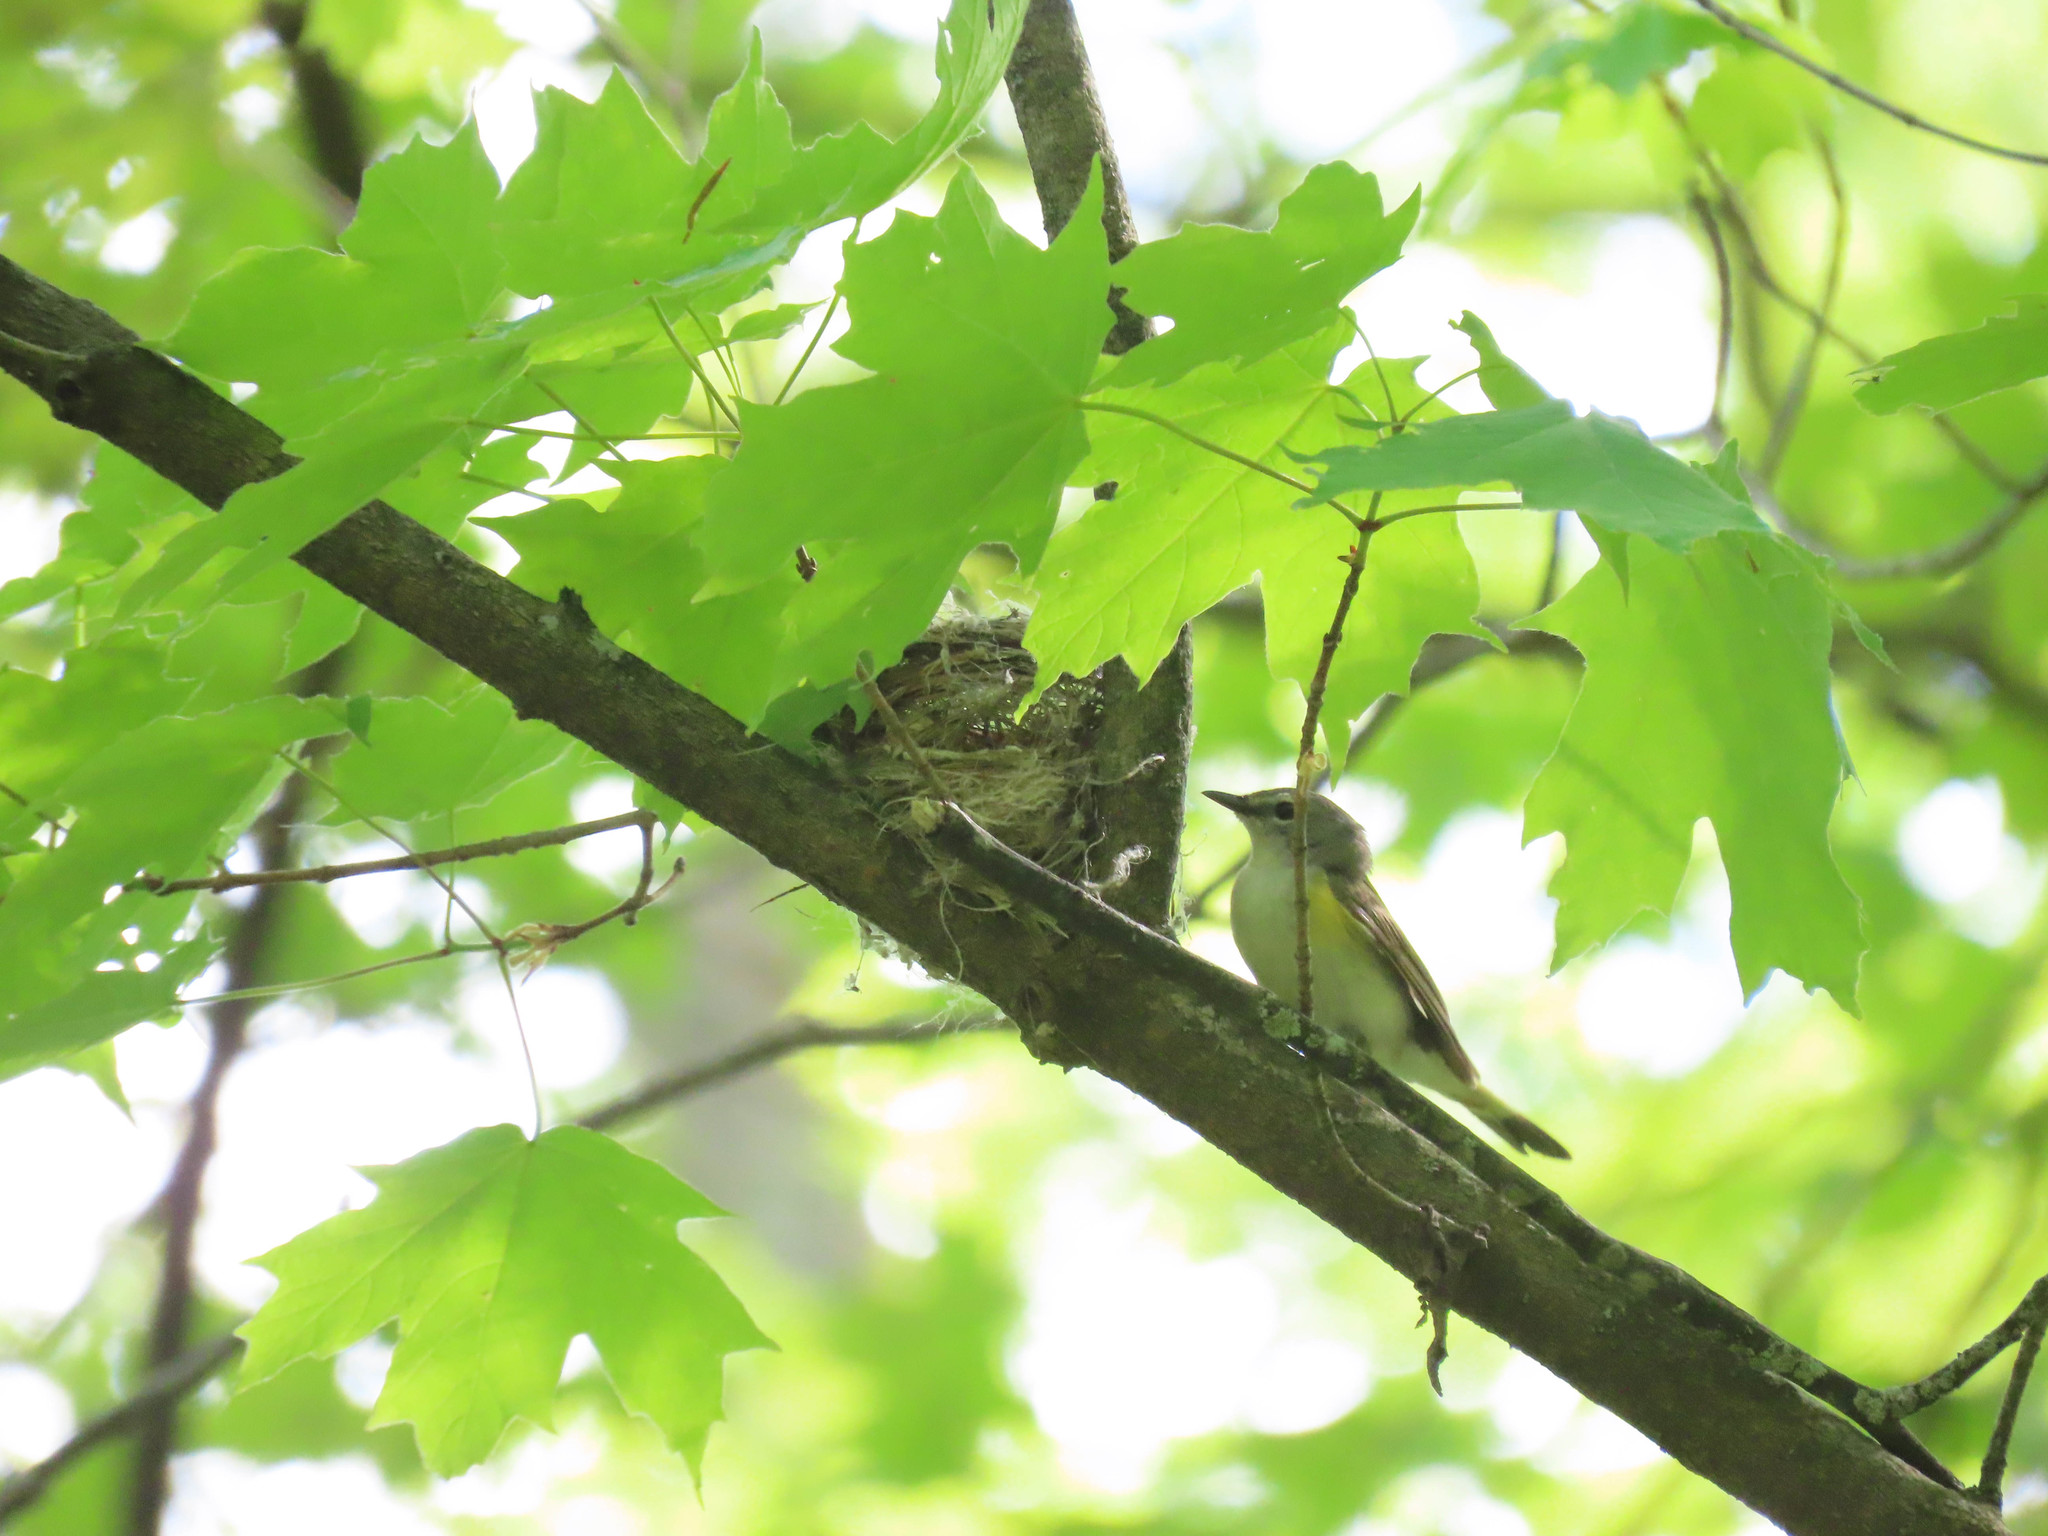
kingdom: Animalia
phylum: Chordata
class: Aves
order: Passeriformes
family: Parulidae
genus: Setophaga
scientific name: Setophaga ruticilla
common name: American redstart
